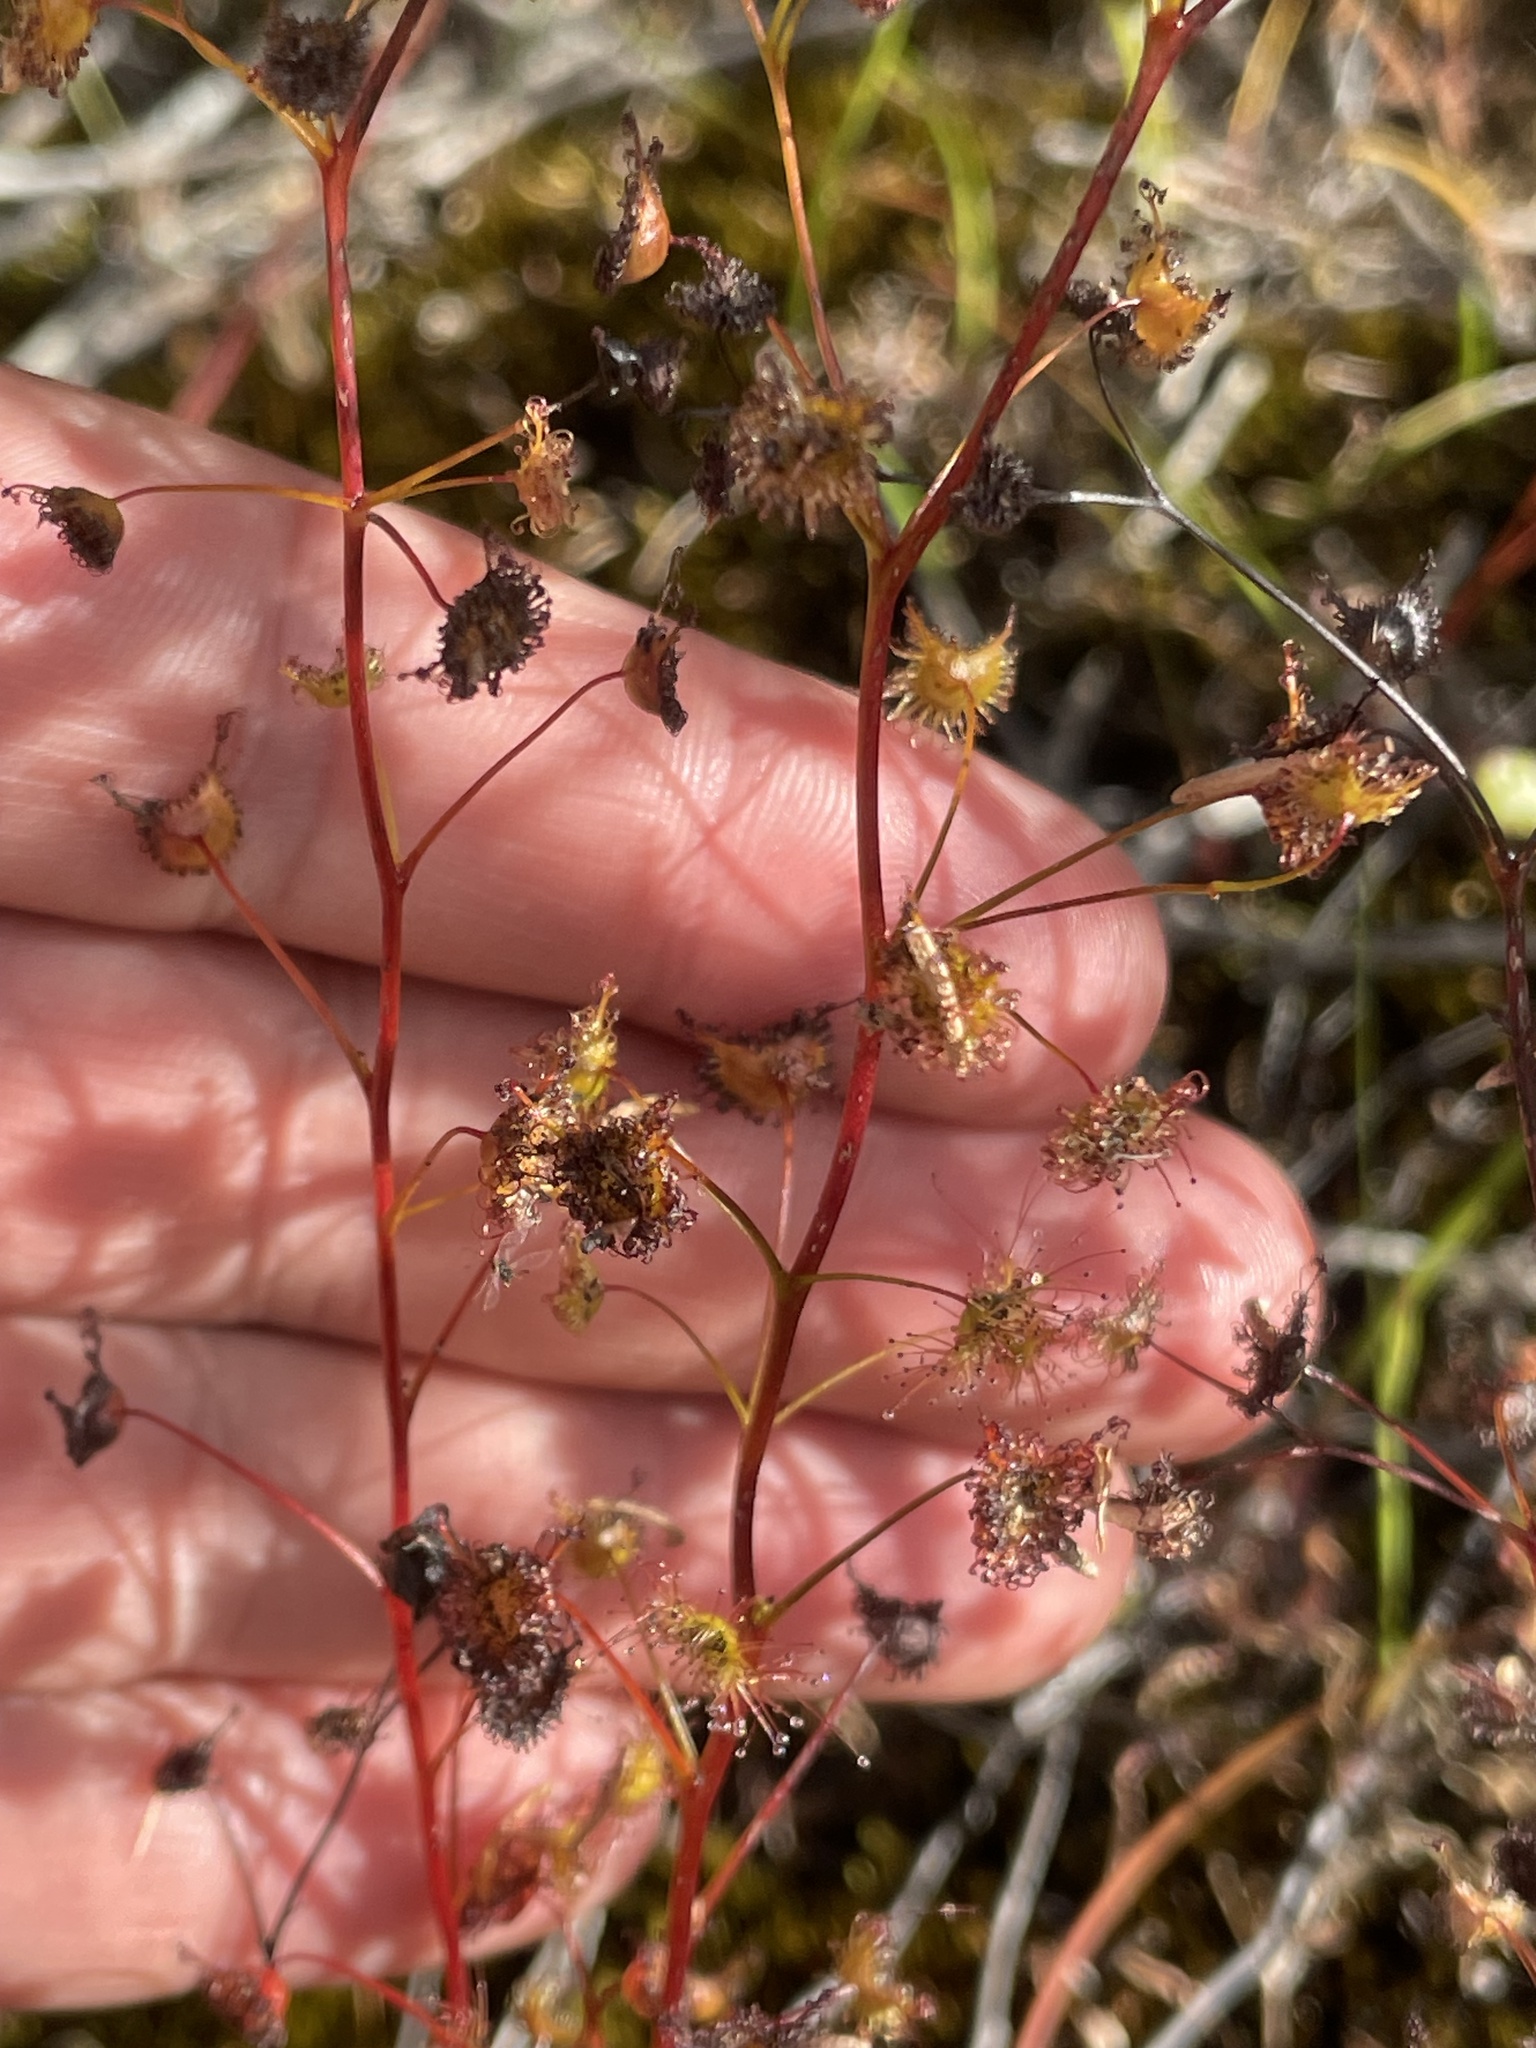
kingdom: Plantae
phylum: Tracheophyta
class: Magnoliopsida
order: Caryophyllales
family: Droseraceae
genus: Drosera
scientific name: Drosera peltata
